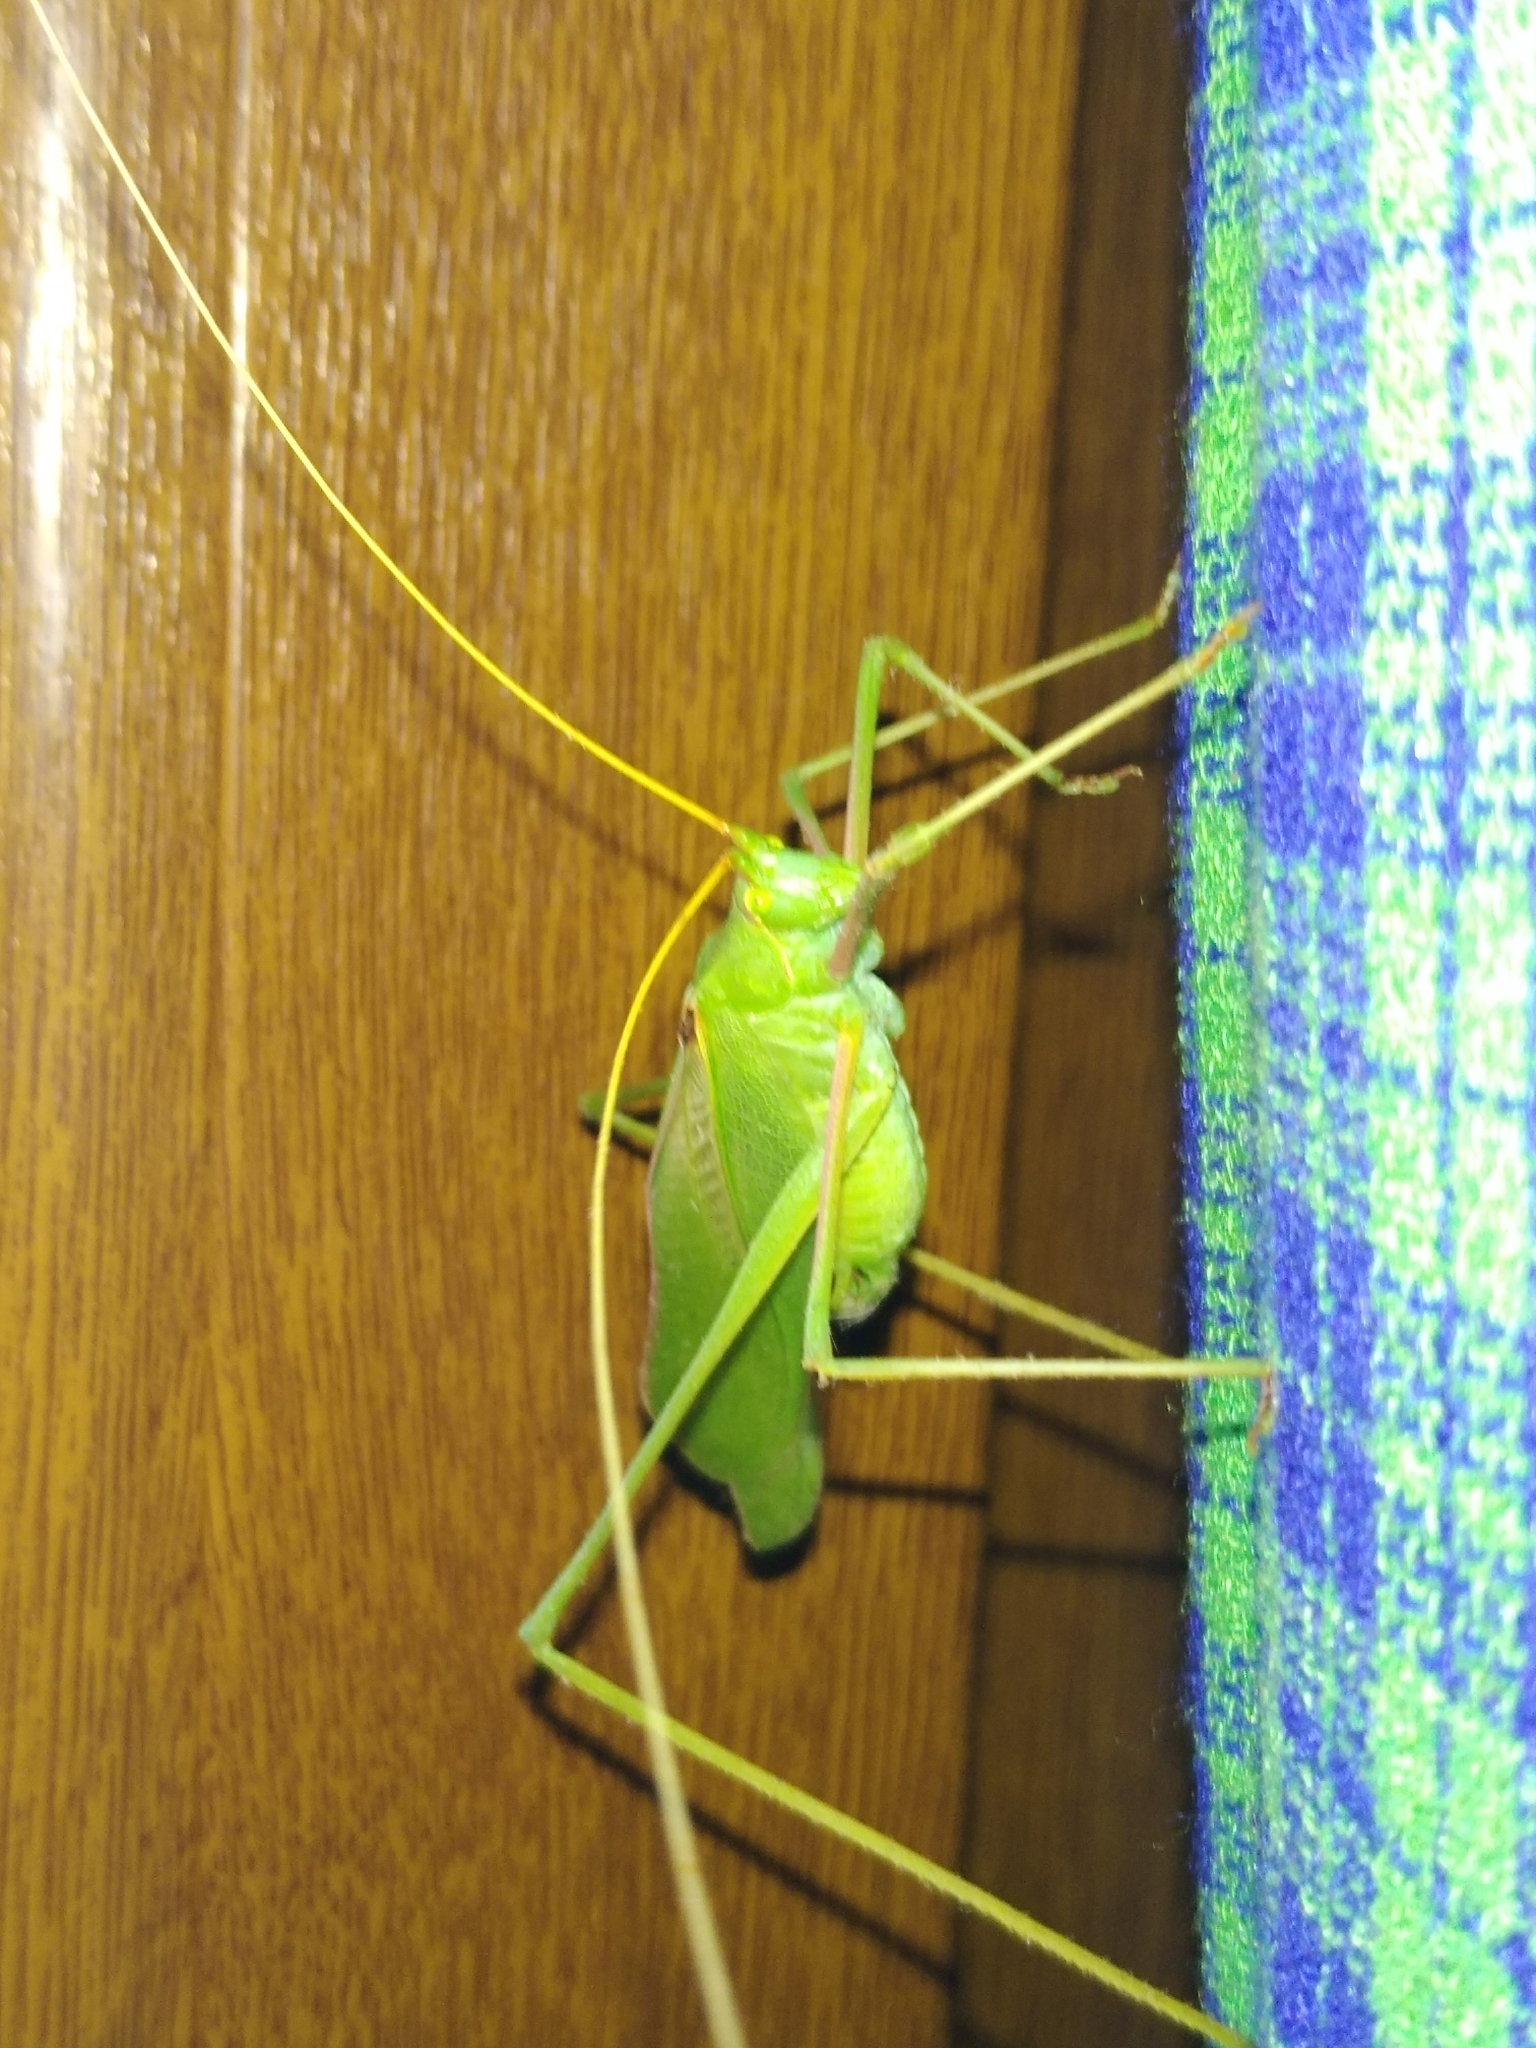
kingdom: Animalia
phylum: Arthropoda
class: Insecta
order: Orthoptera
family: Tettigoniidae
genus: Acrometopa
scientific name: Acrometopa servillea
